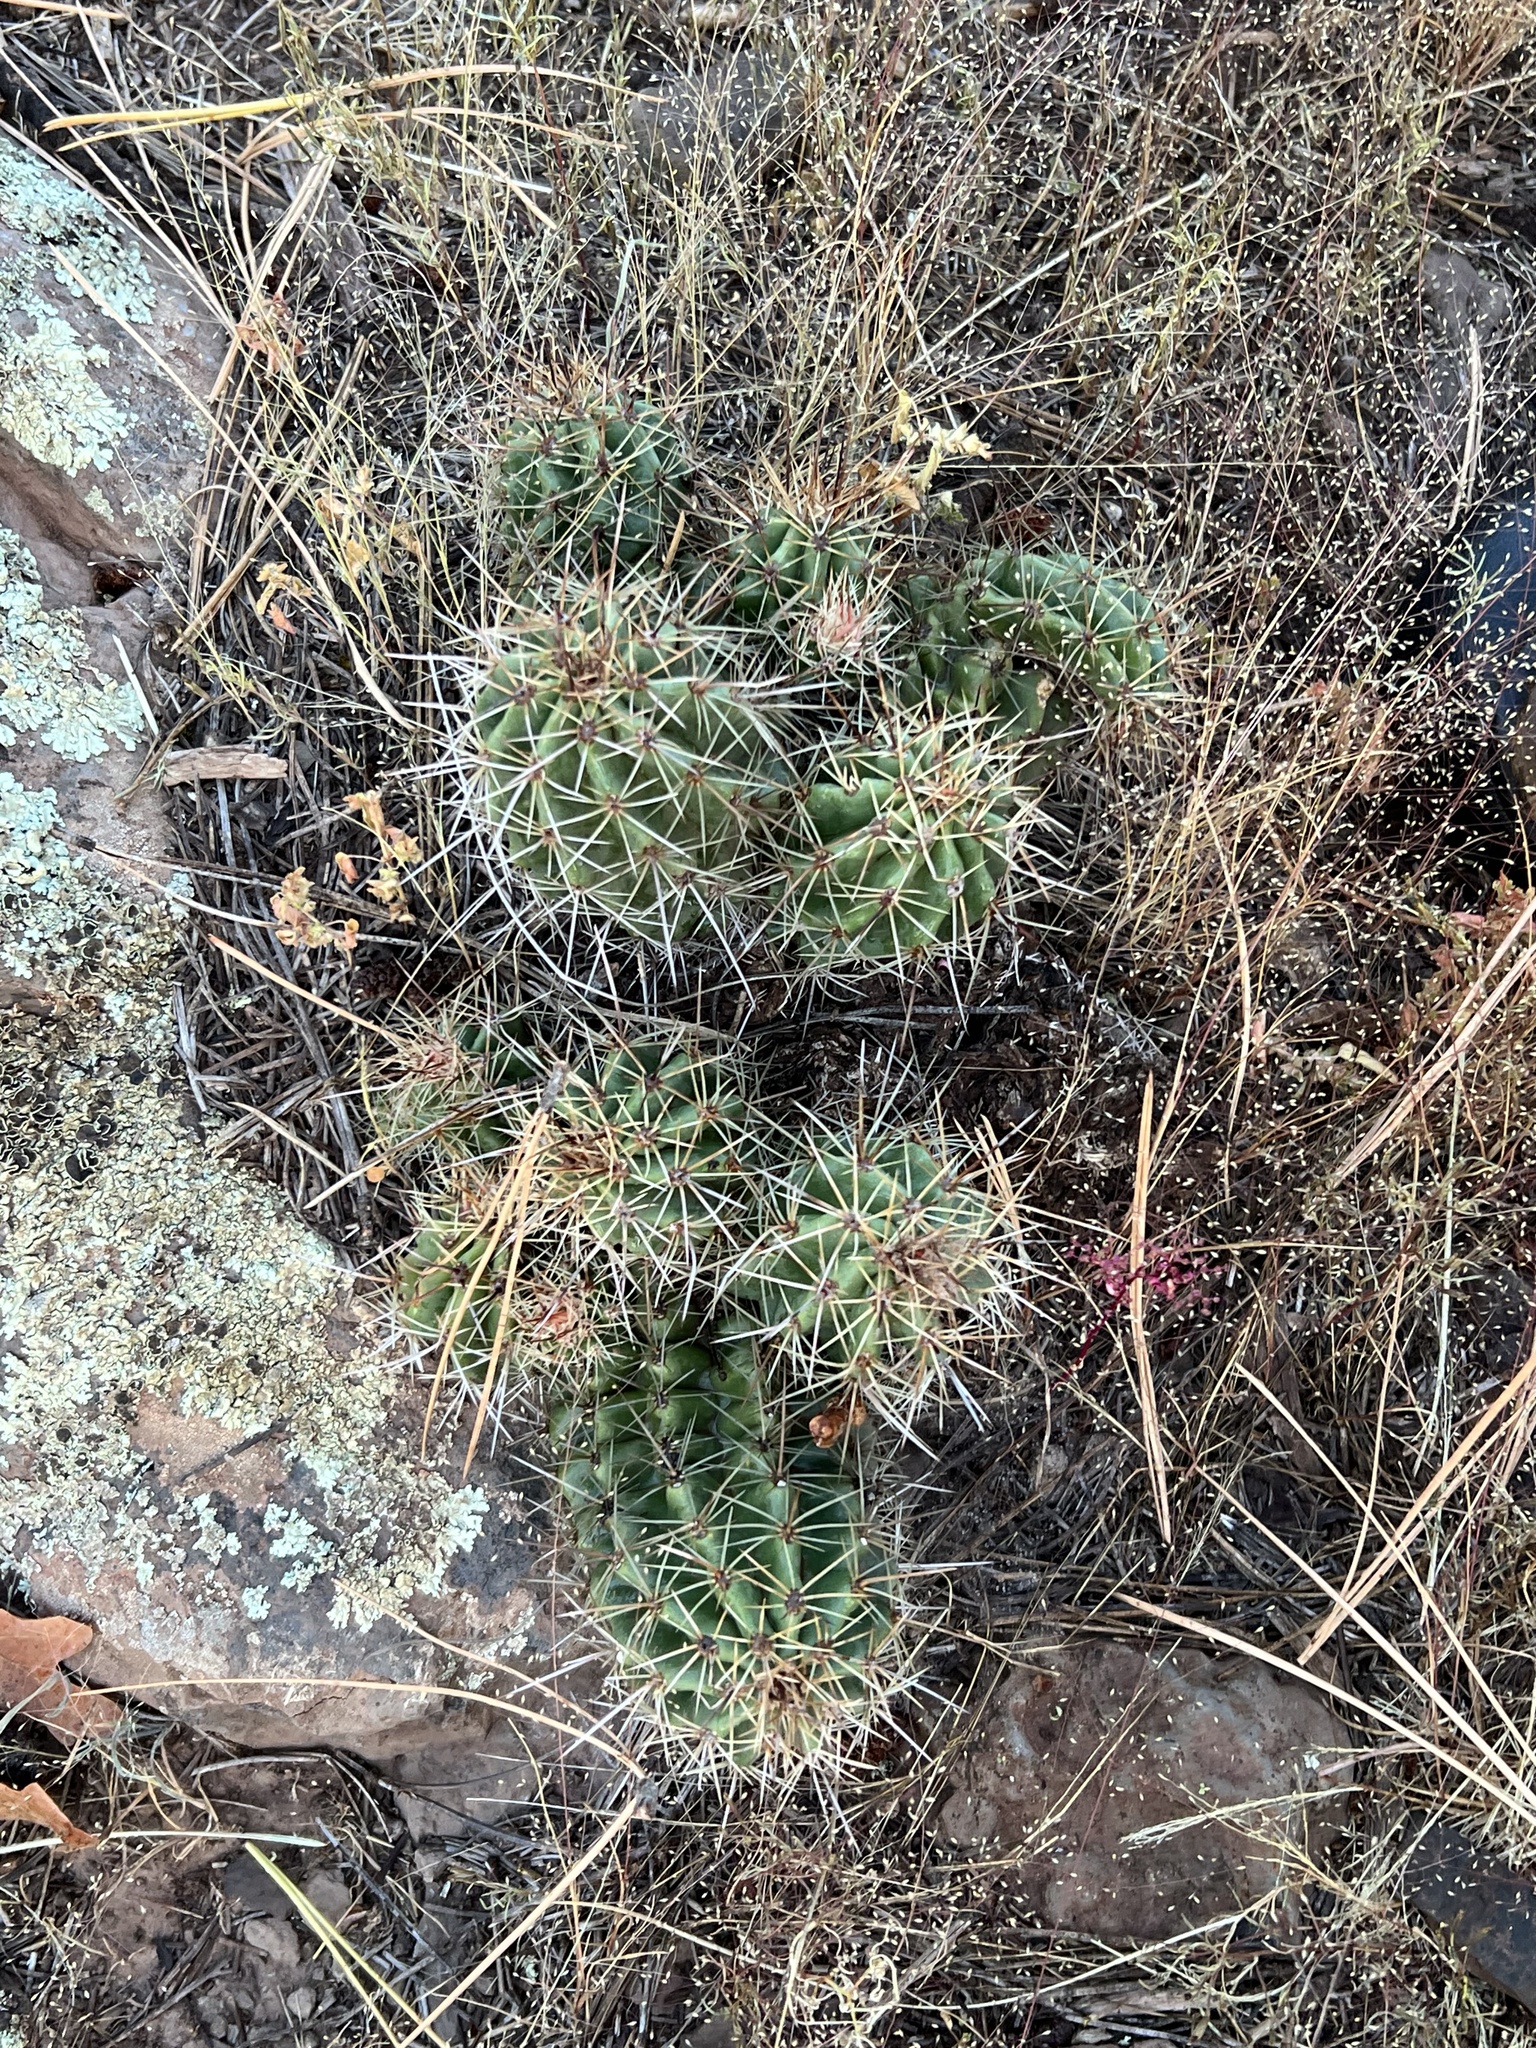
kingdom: Plantae
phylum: Tracheophyta
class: Magnoliopsida
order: Caryophyllales
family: Cactaceae
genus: Echinocereus
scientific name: Echinocereus bakeri
